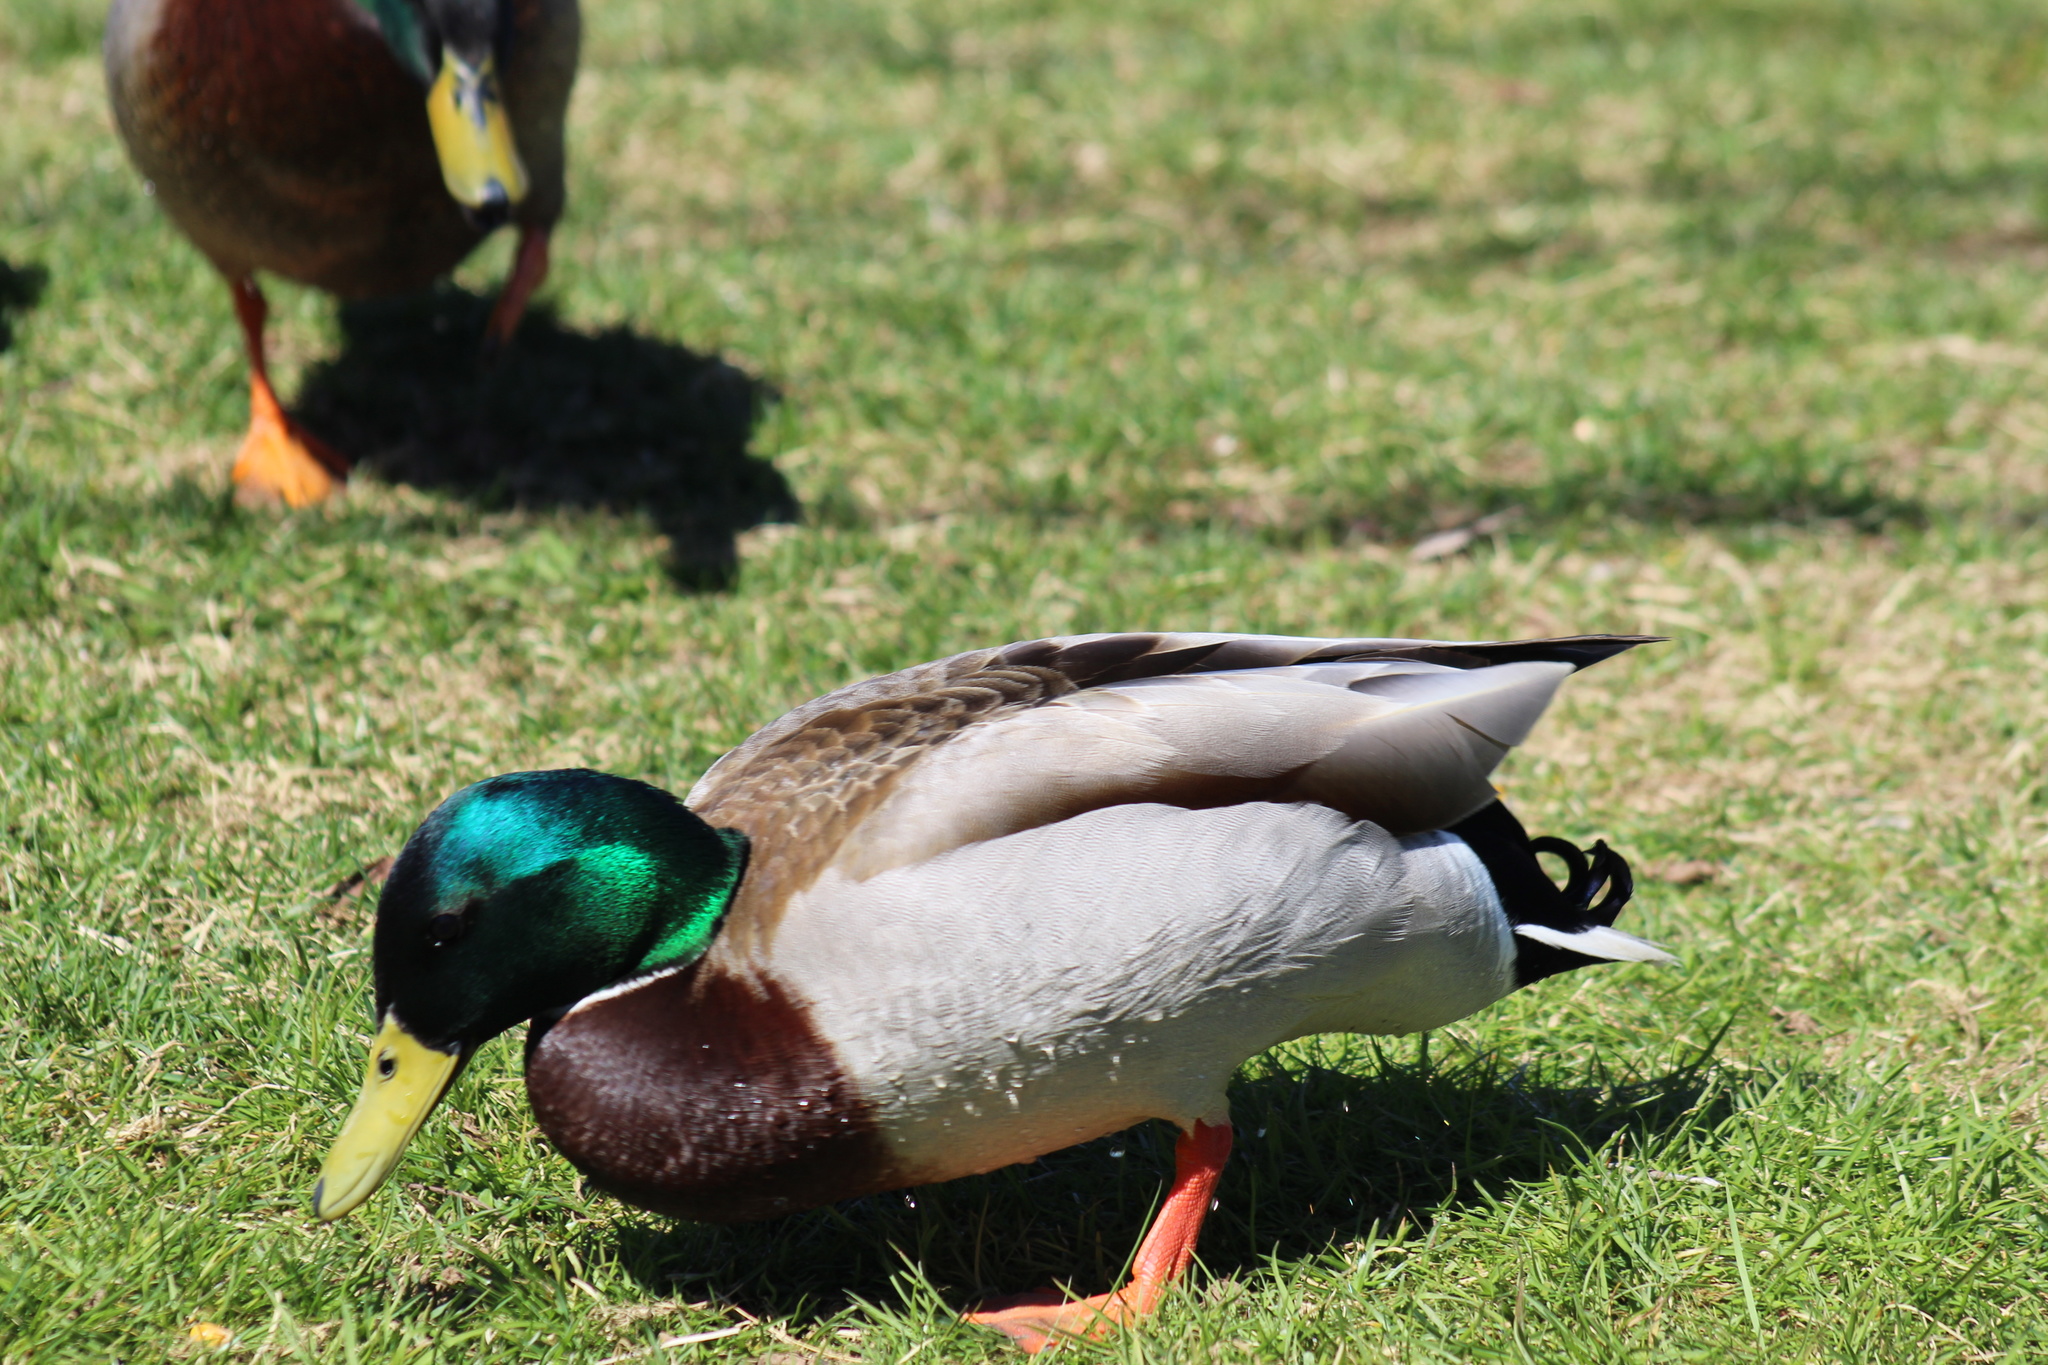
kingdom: Animalia
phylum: Chordata
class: Aves
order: Anseriformes
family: Anatidae
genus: Anas
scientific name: Anas platyrhynchos
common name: Mallard
